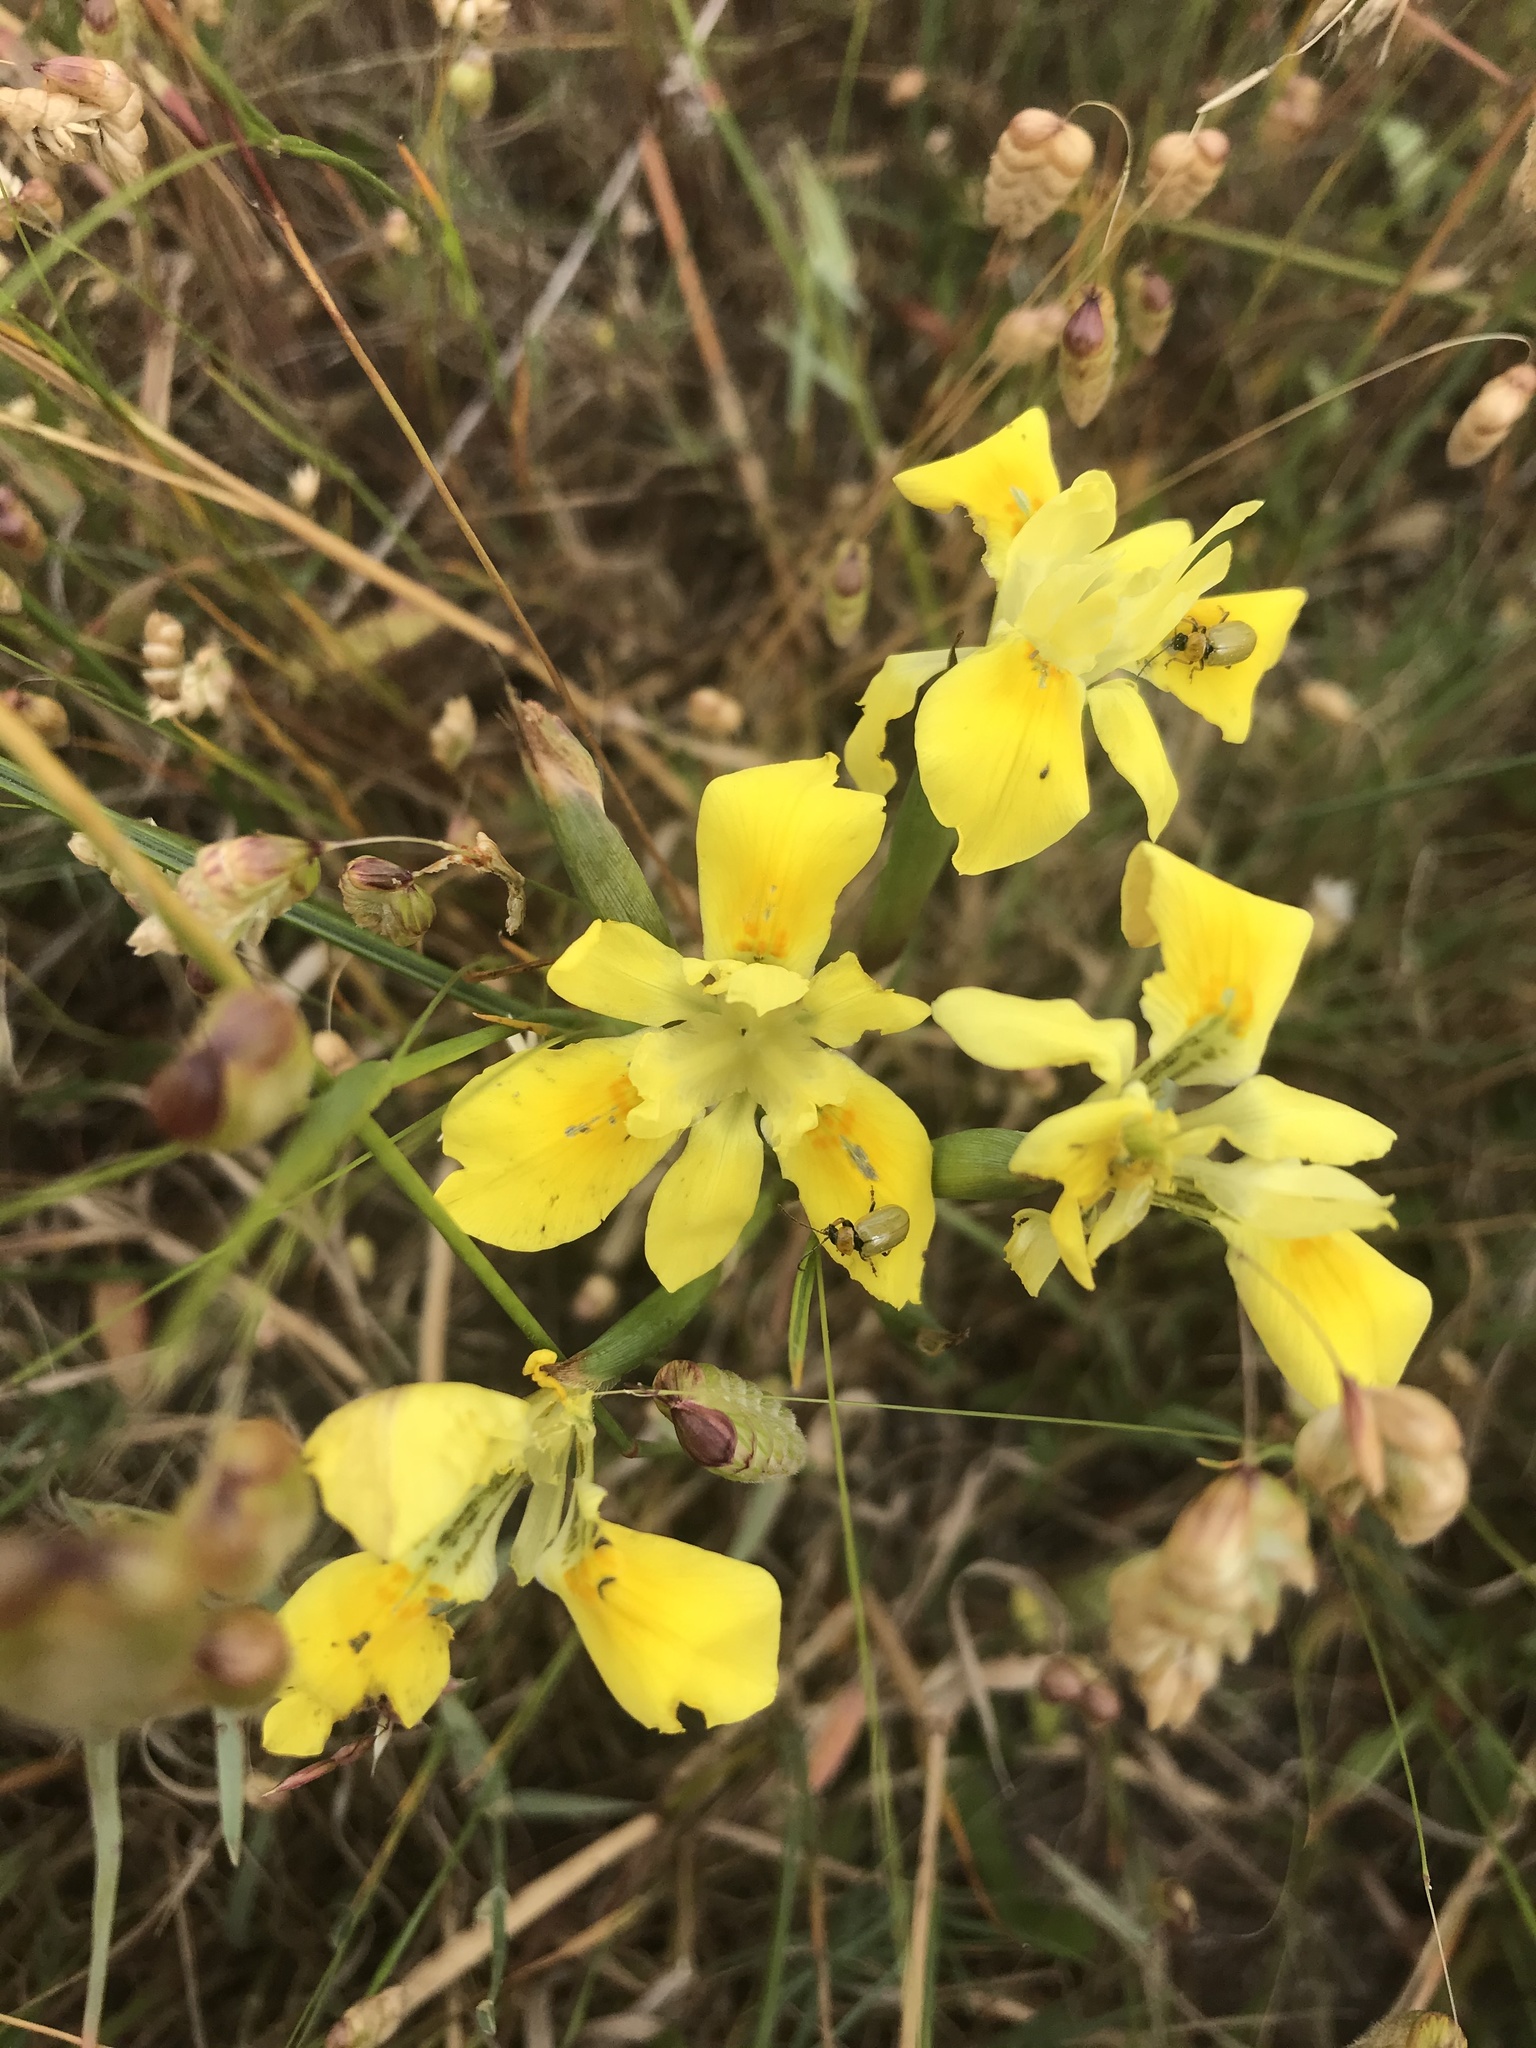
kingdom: Plantae
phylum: Tracheophyta
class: Liliopsida
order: Asparagales
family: Iridaceae
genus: Moraea
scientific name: Moraea fugax
